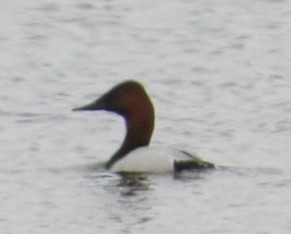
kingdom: Animalia
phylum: Chordata
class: Aves
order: Anseriformes
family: Anatidae
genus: Aythya
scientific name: Aythya valisineria
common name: Canvasback
